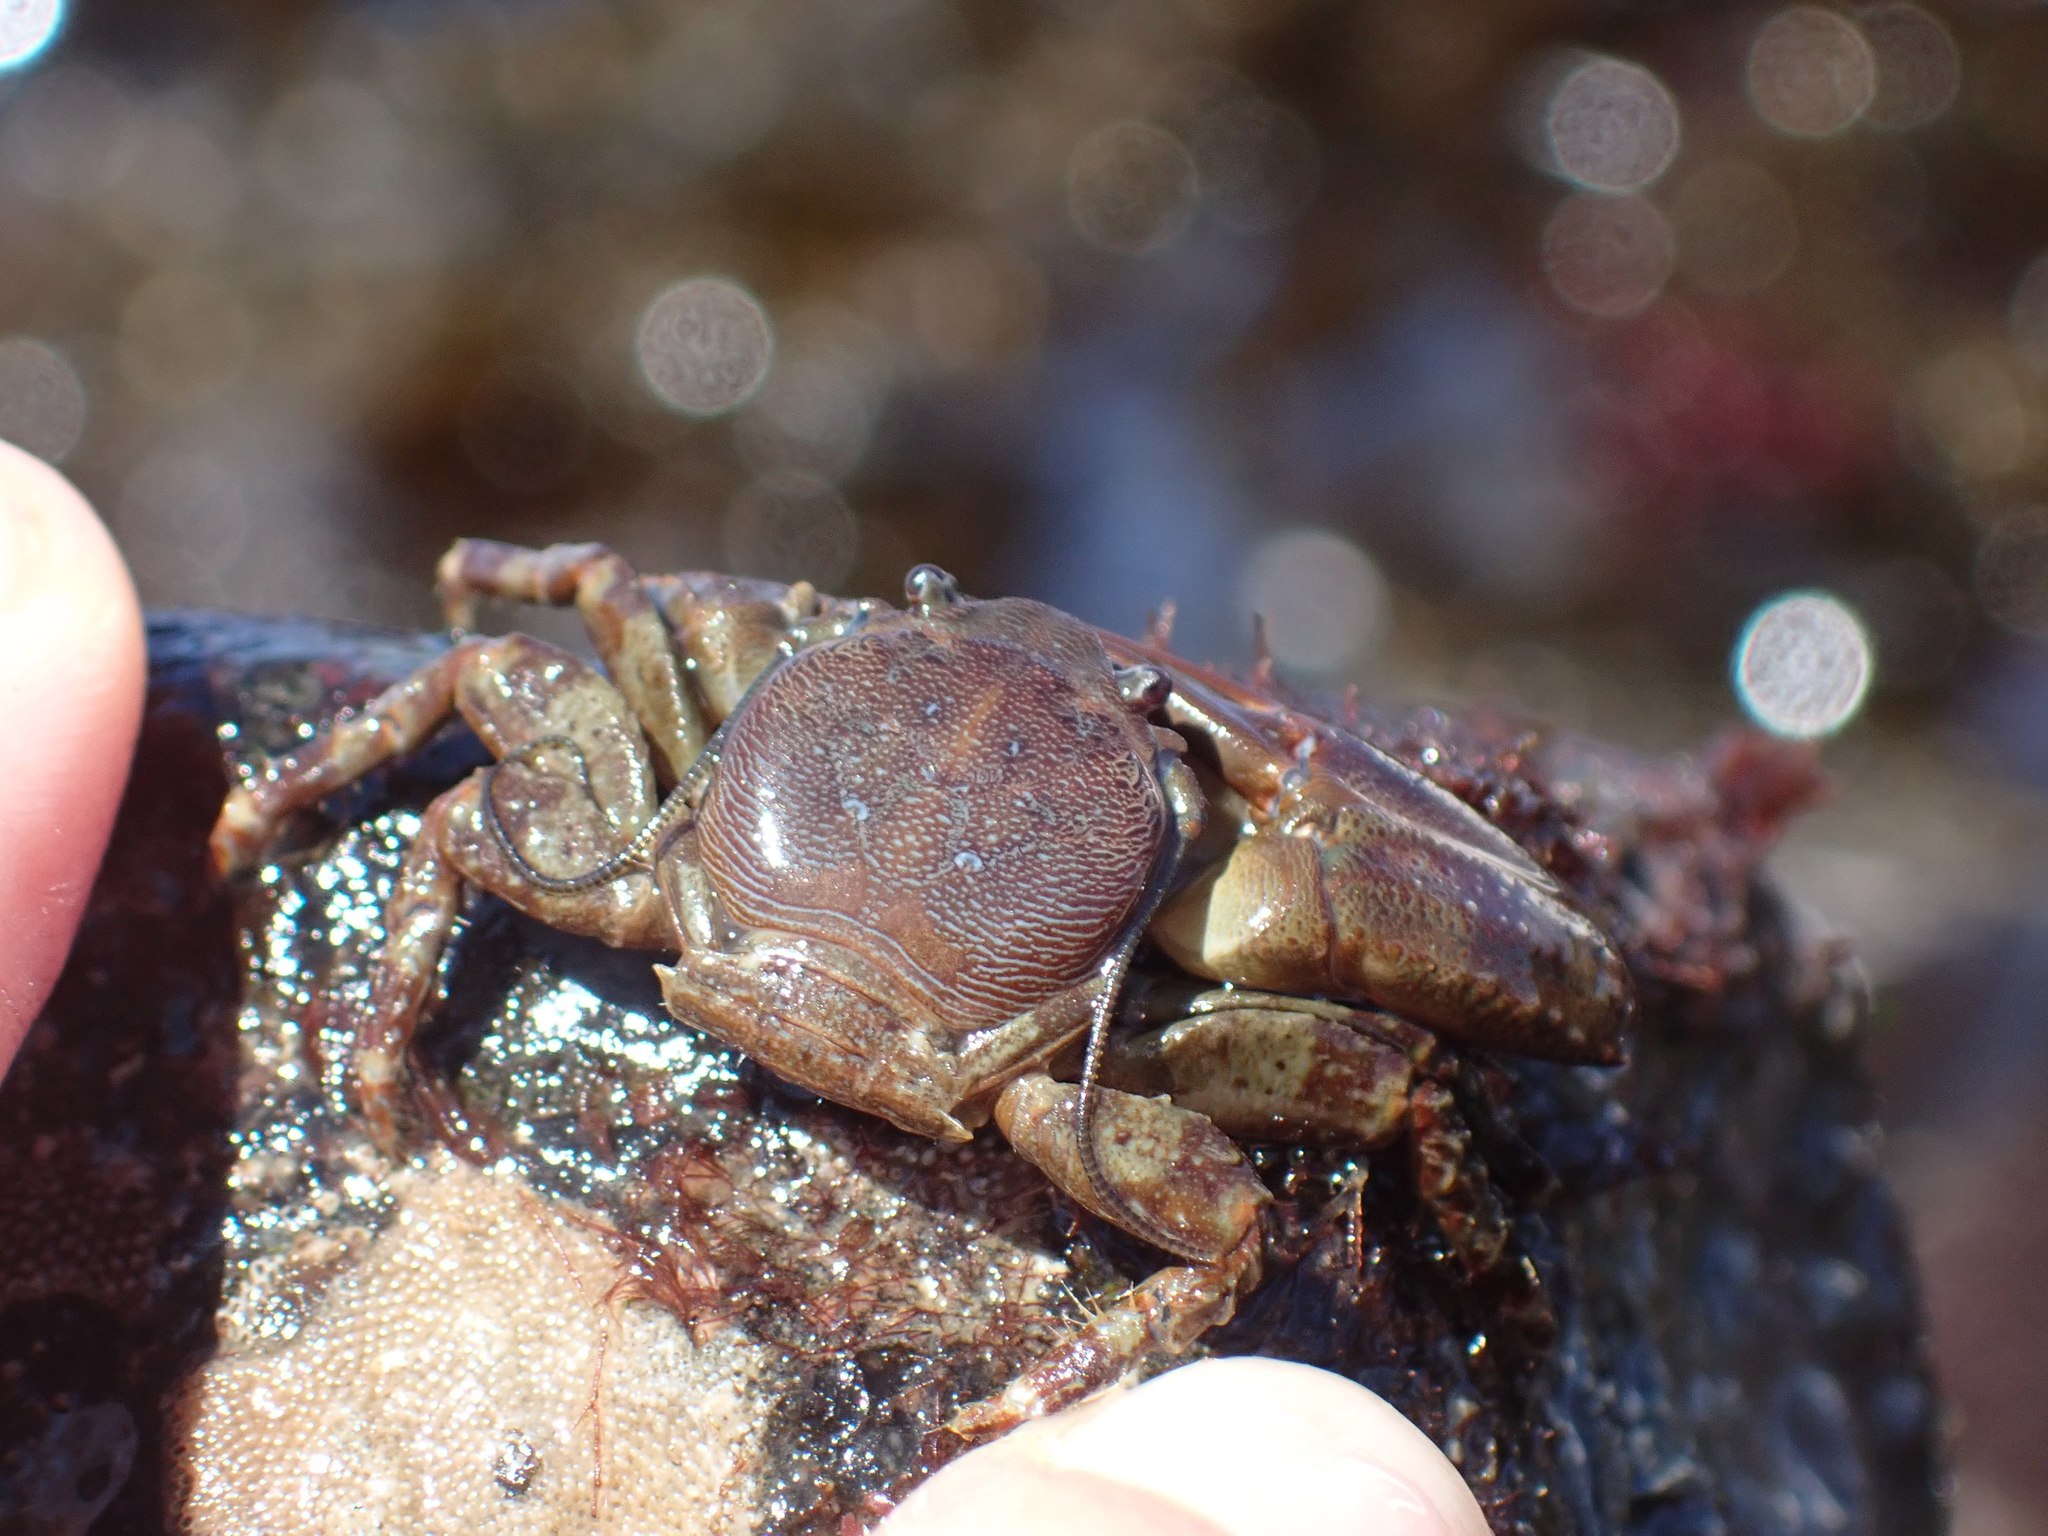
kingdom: Animalia
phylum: Arthropoda
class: Malacostraca
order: Decapoda
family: Porcellanidae
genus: Petrolisthes
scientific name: Petrolisthes eriomerus
